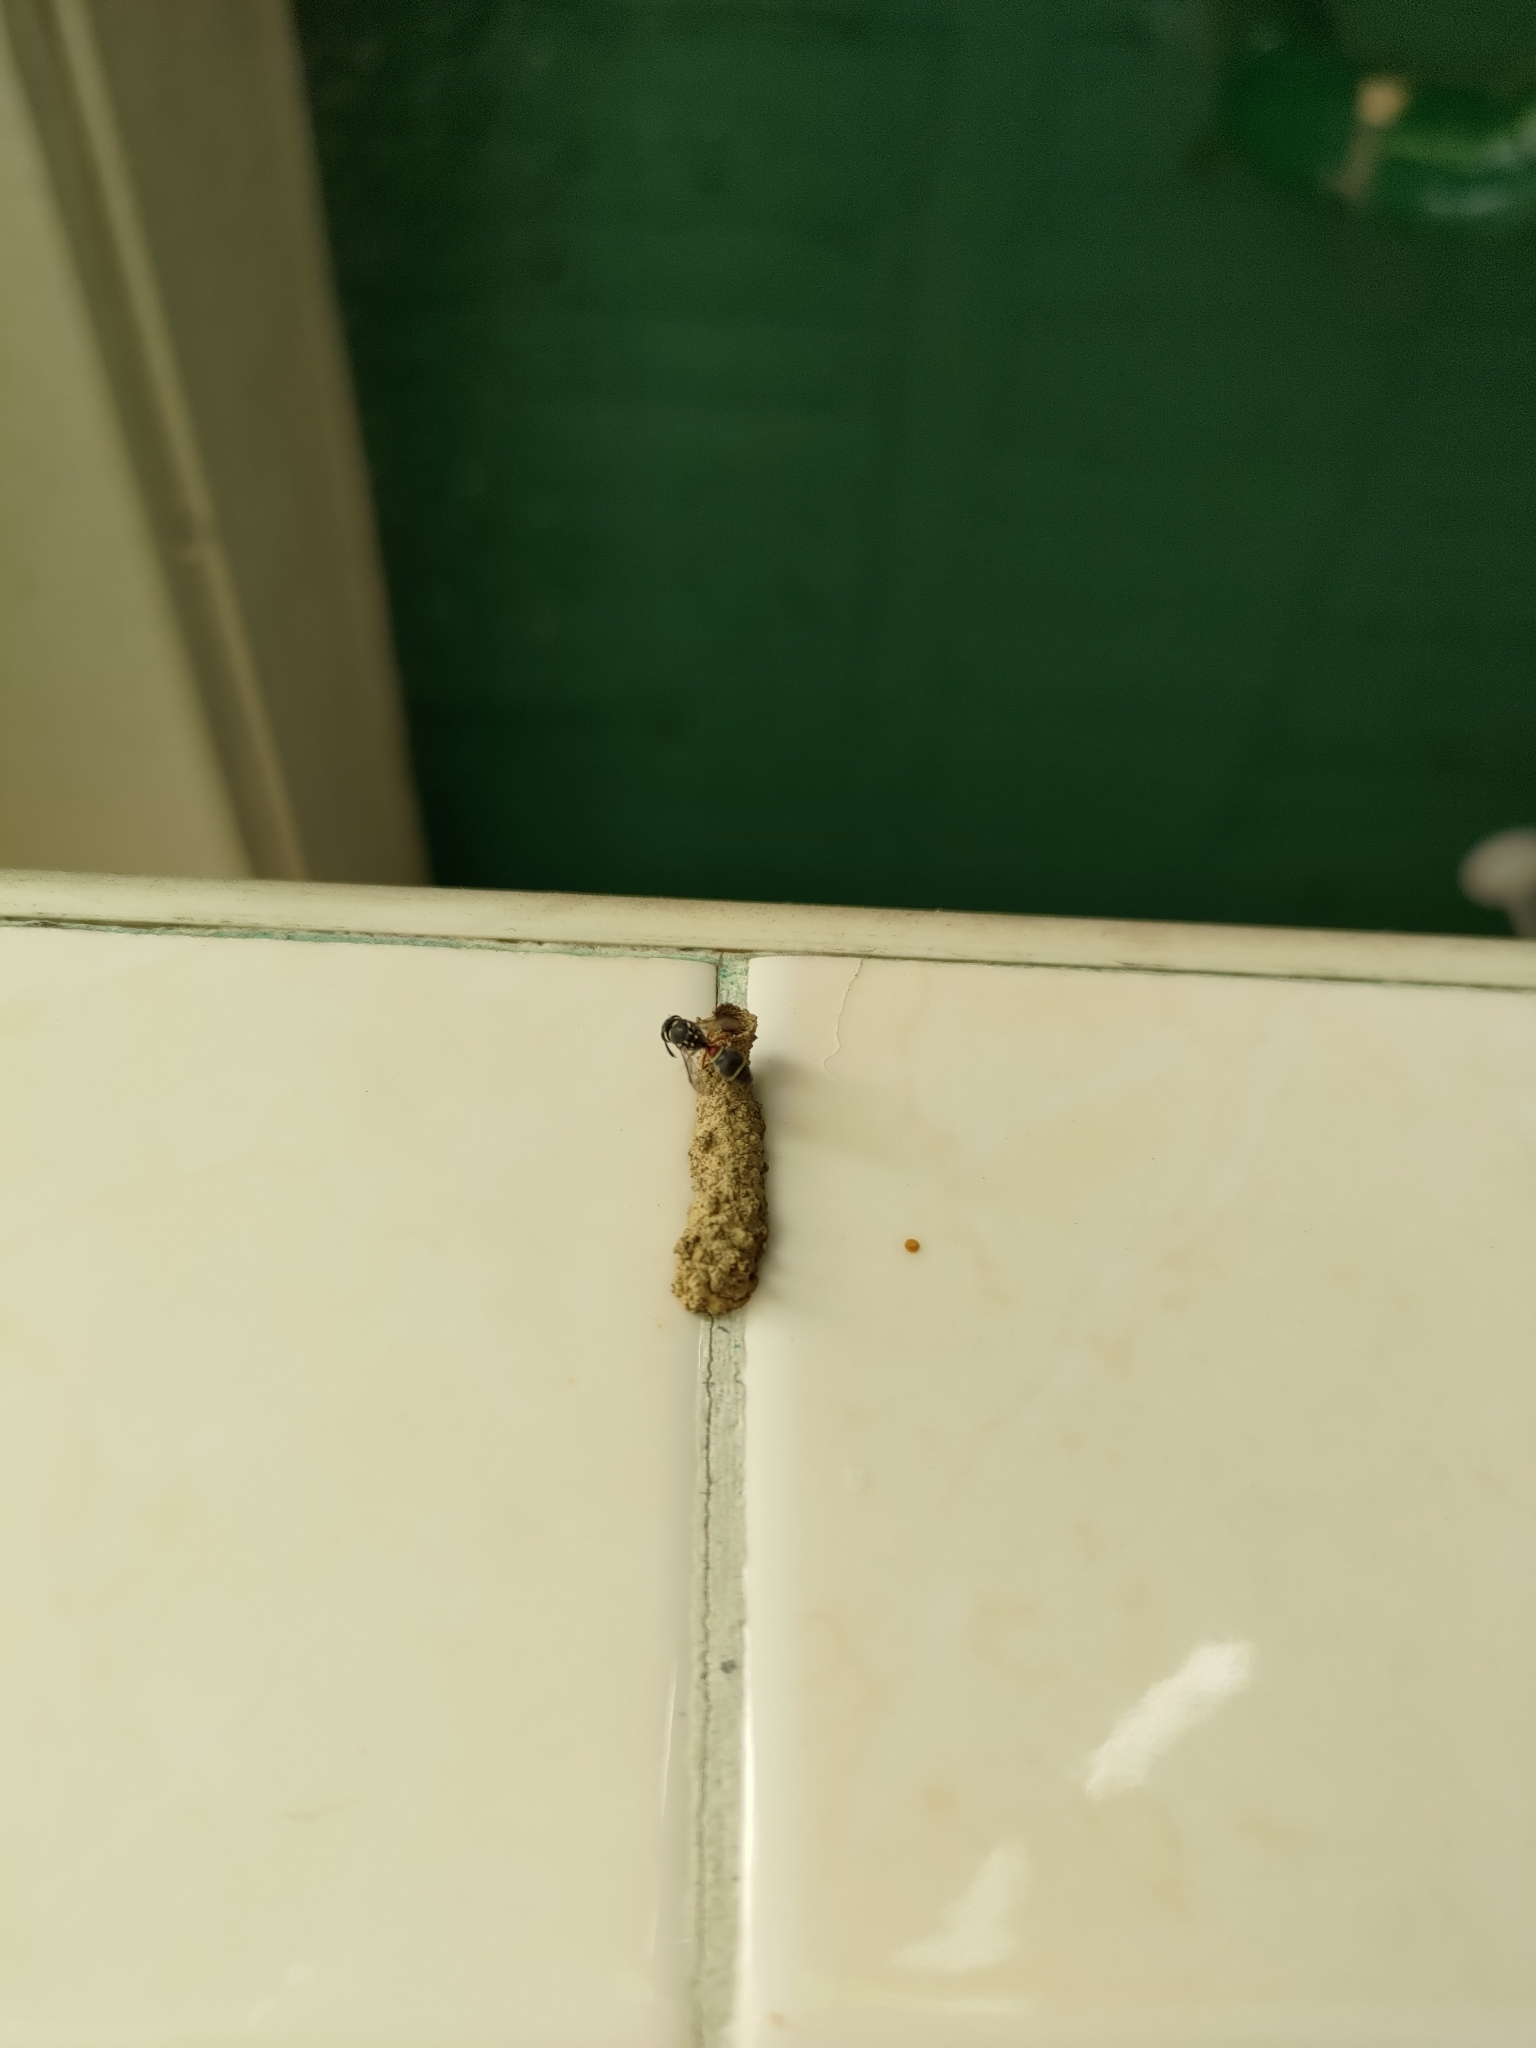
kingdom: Animalia
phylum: Arthropoda
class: Insecta
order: Hymenoptera
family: Eumenidae
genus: Paraleptomenes
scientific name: Paraleptomenes miniatus
